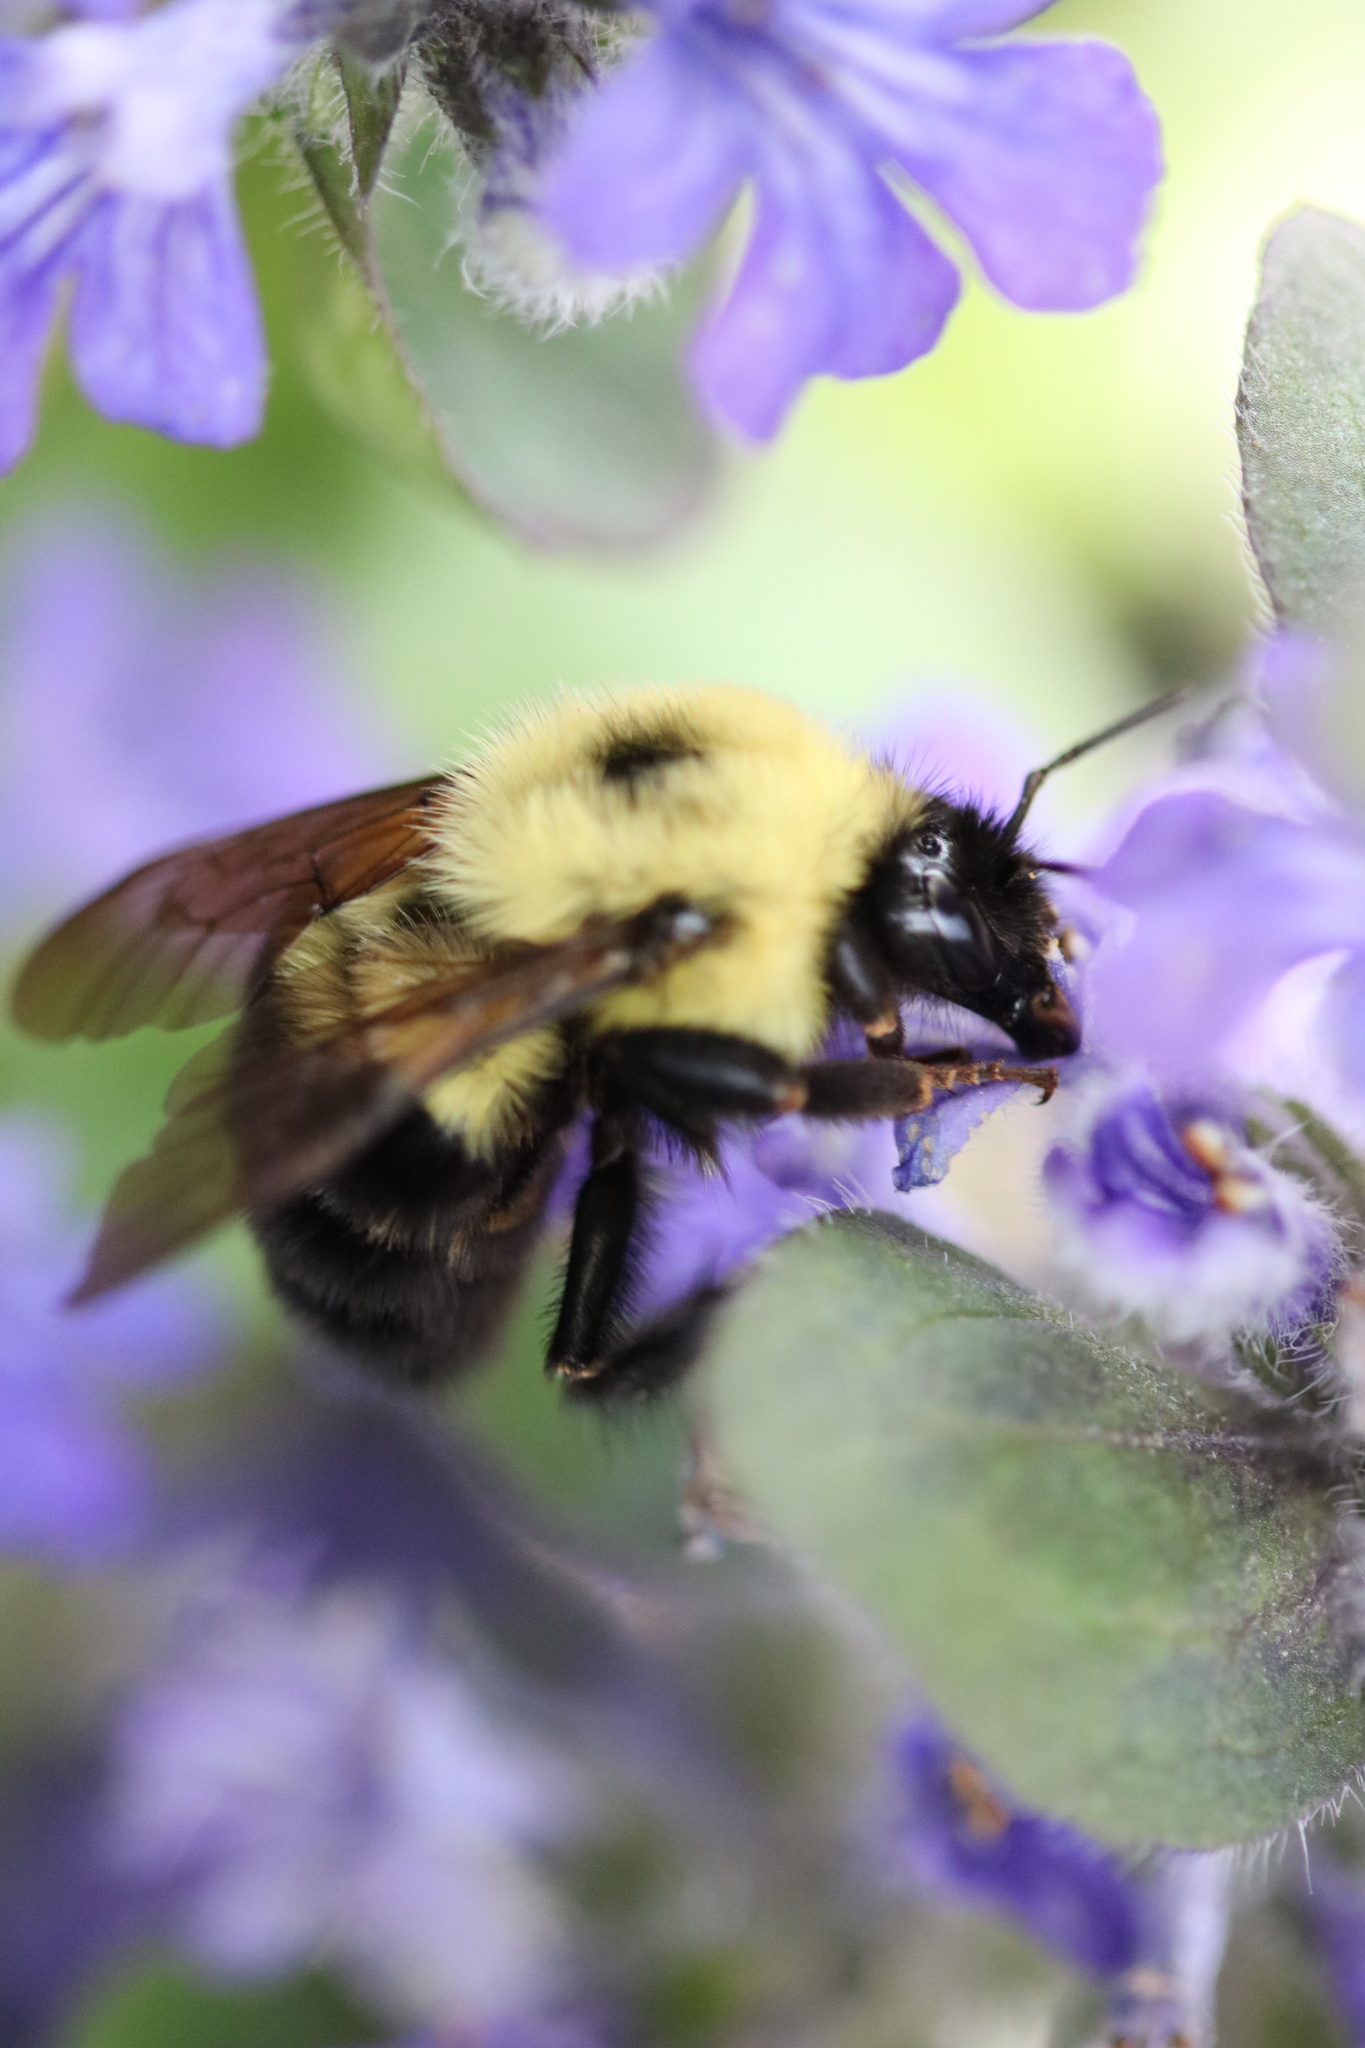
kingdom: Animalia
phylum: Arthropoda
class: Insecta
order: Hymenoptera
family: Apidae
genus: Bombus
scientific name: Bombus bimaculatus
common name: Two-spotted bumble bee
